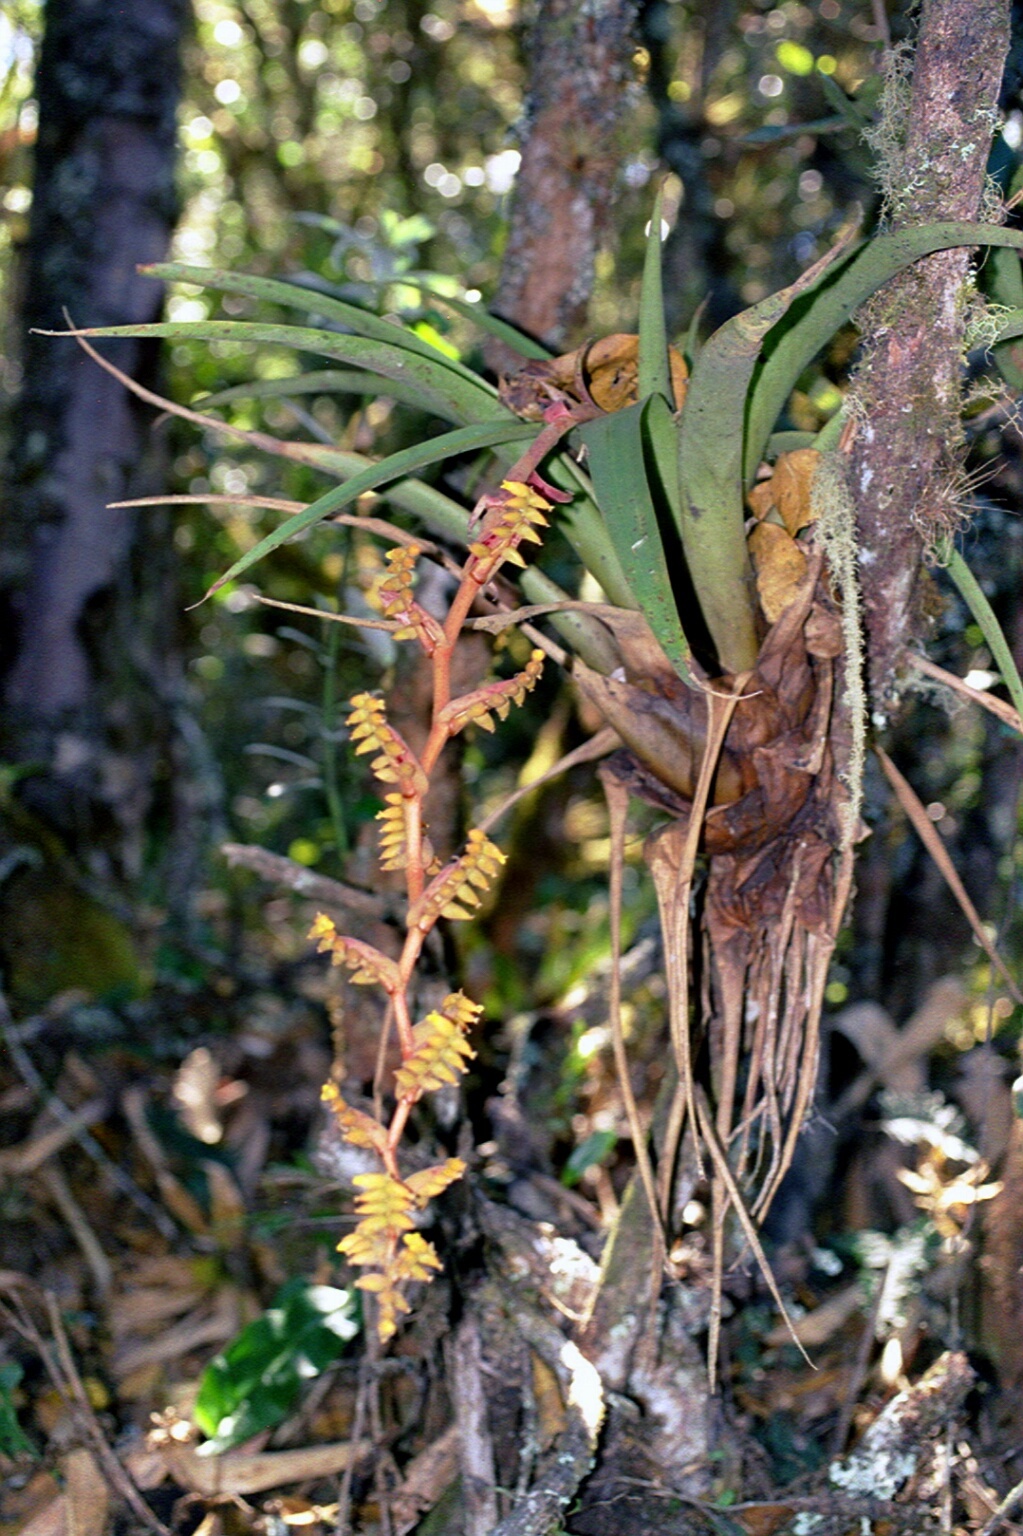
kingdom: Plantae
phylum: Tracheophyta
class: Liliopsida
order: Poales
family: Bromeliaceae
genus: Racinaea
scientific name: Racinaea tetrantha
